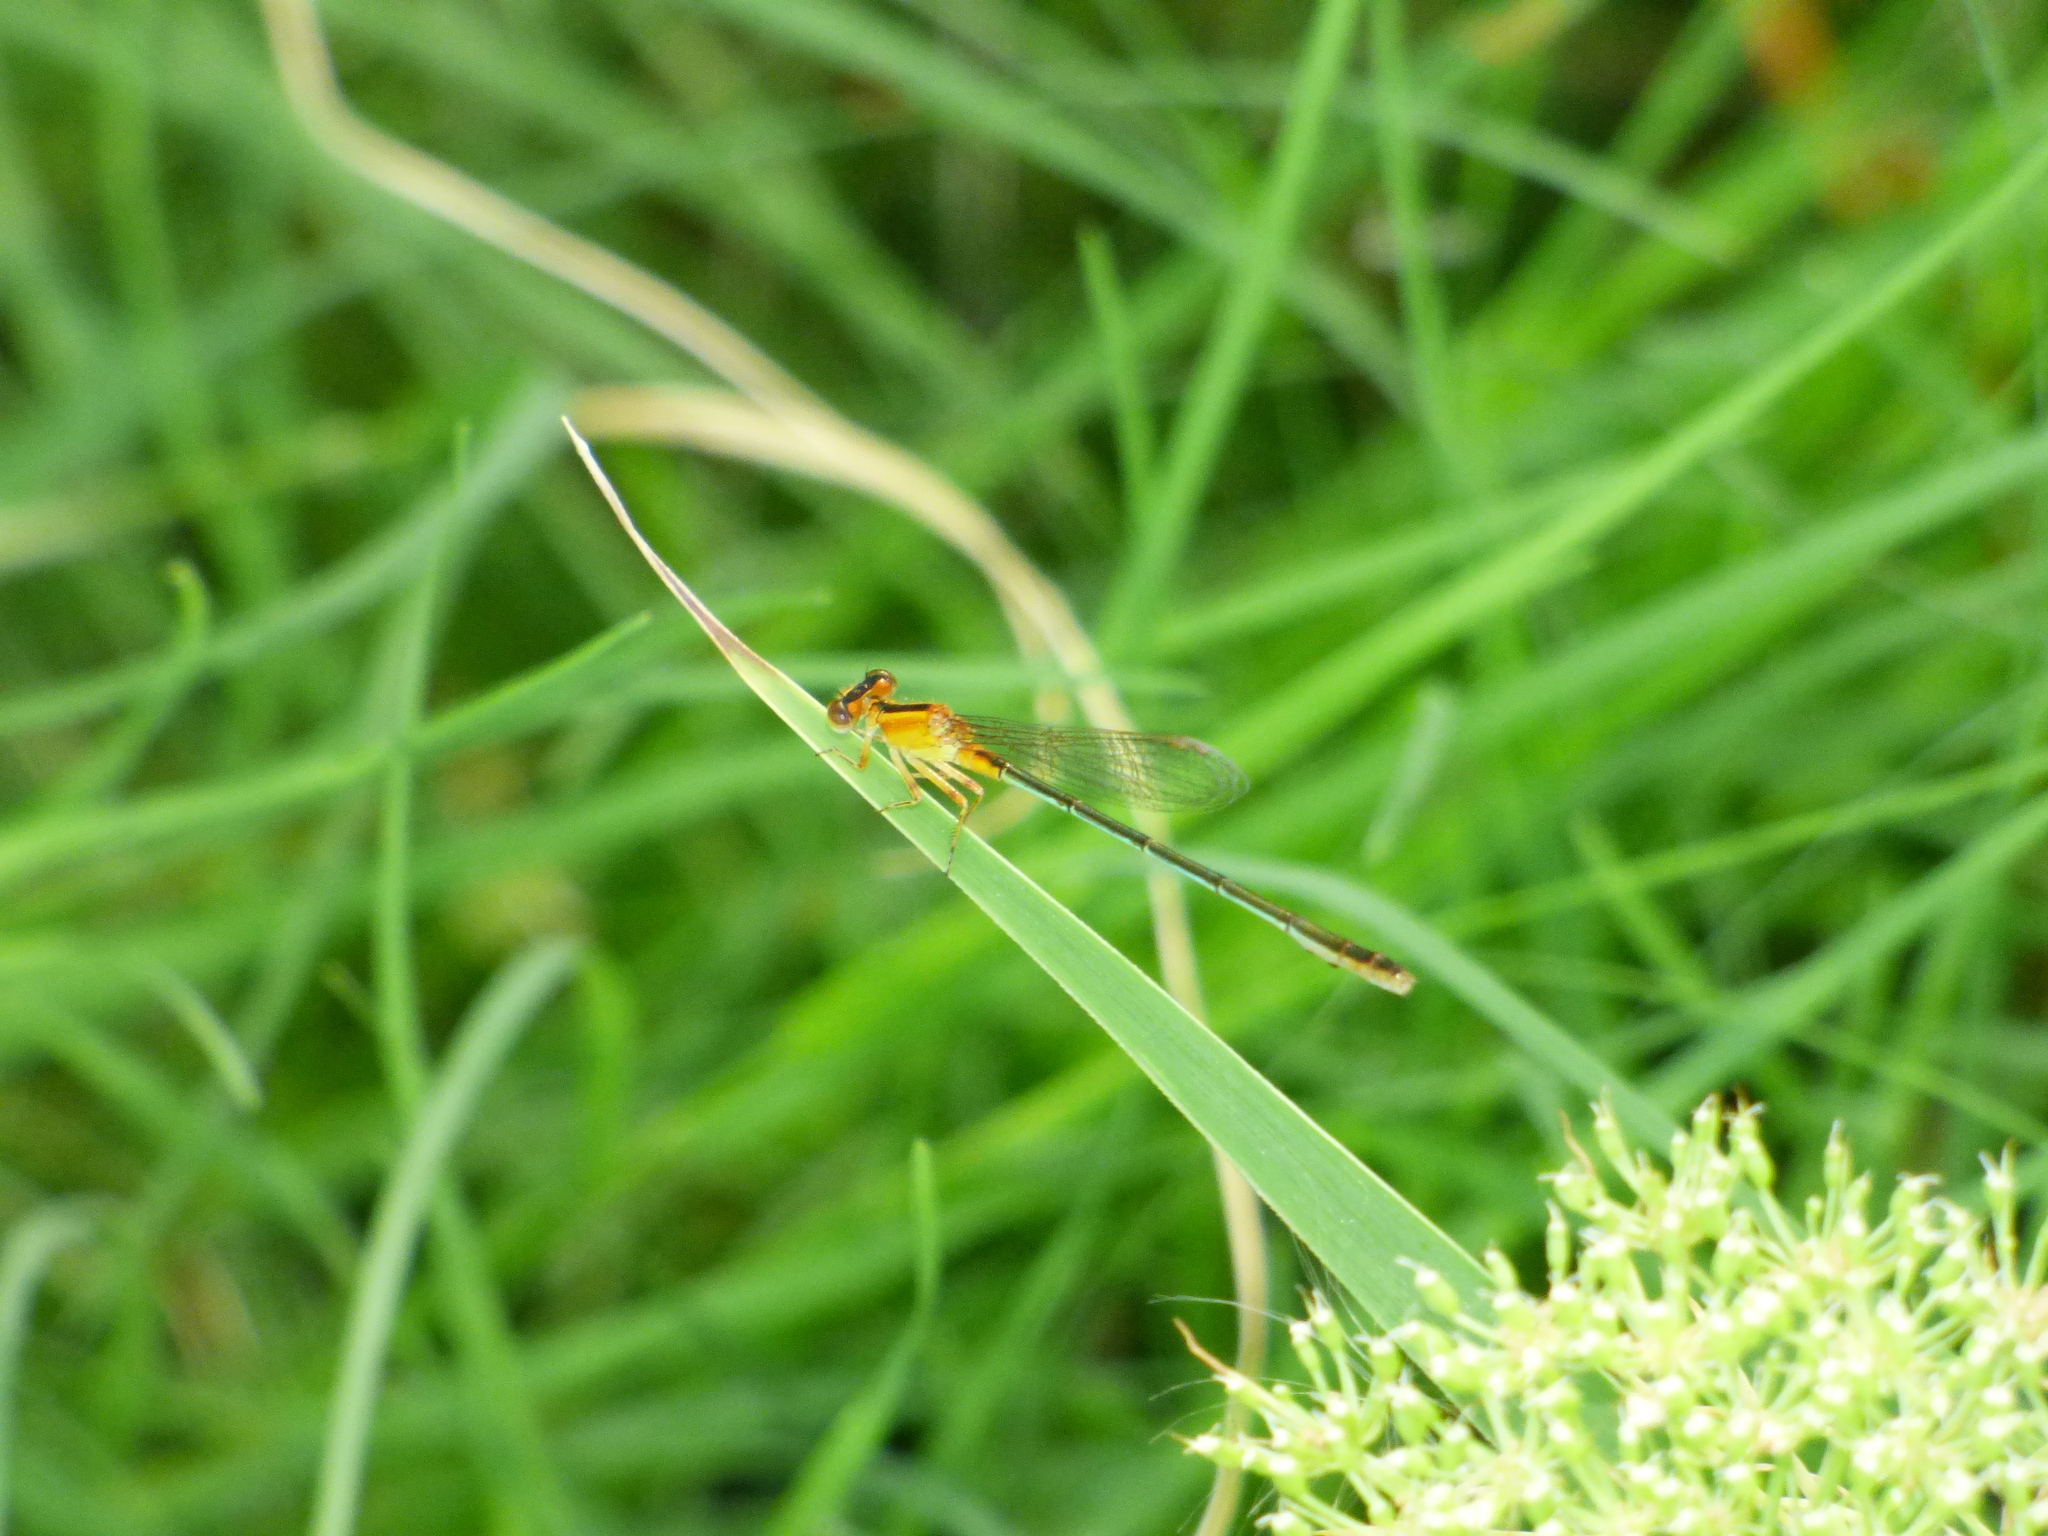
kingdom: Animalia
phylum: Arthropoda
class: Insecta
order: Odonata
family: Coenagrionidae
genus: Ischnura
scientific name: Ischnura fluviatilis
